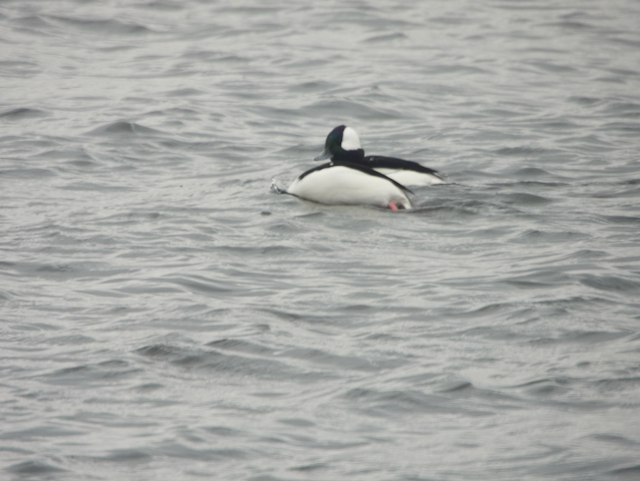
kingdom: Animalia
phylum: Chordata
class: Aves
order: Anseriformes
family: Anatidae
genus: Bucephala
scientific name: Bucephala albeola
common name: Bufflehead
